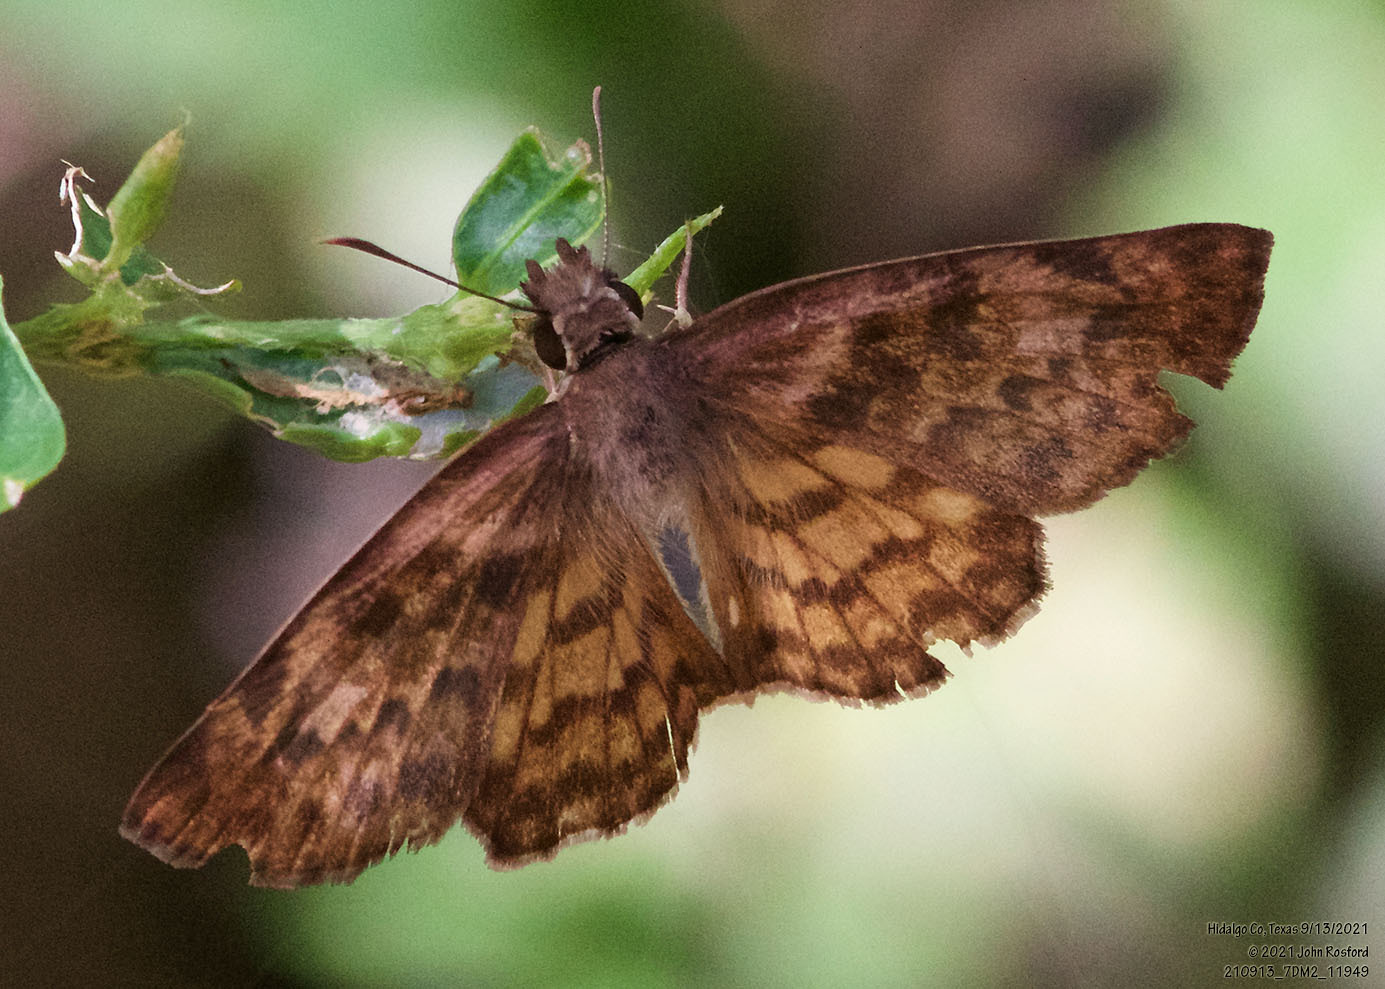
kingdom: Animalia
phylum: Arthropoda
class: Insecta
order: Lepidoptera
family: Hesperiidae
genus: Timochares
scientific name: Timochares ruptifasciata
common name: Brown-banded skipper
